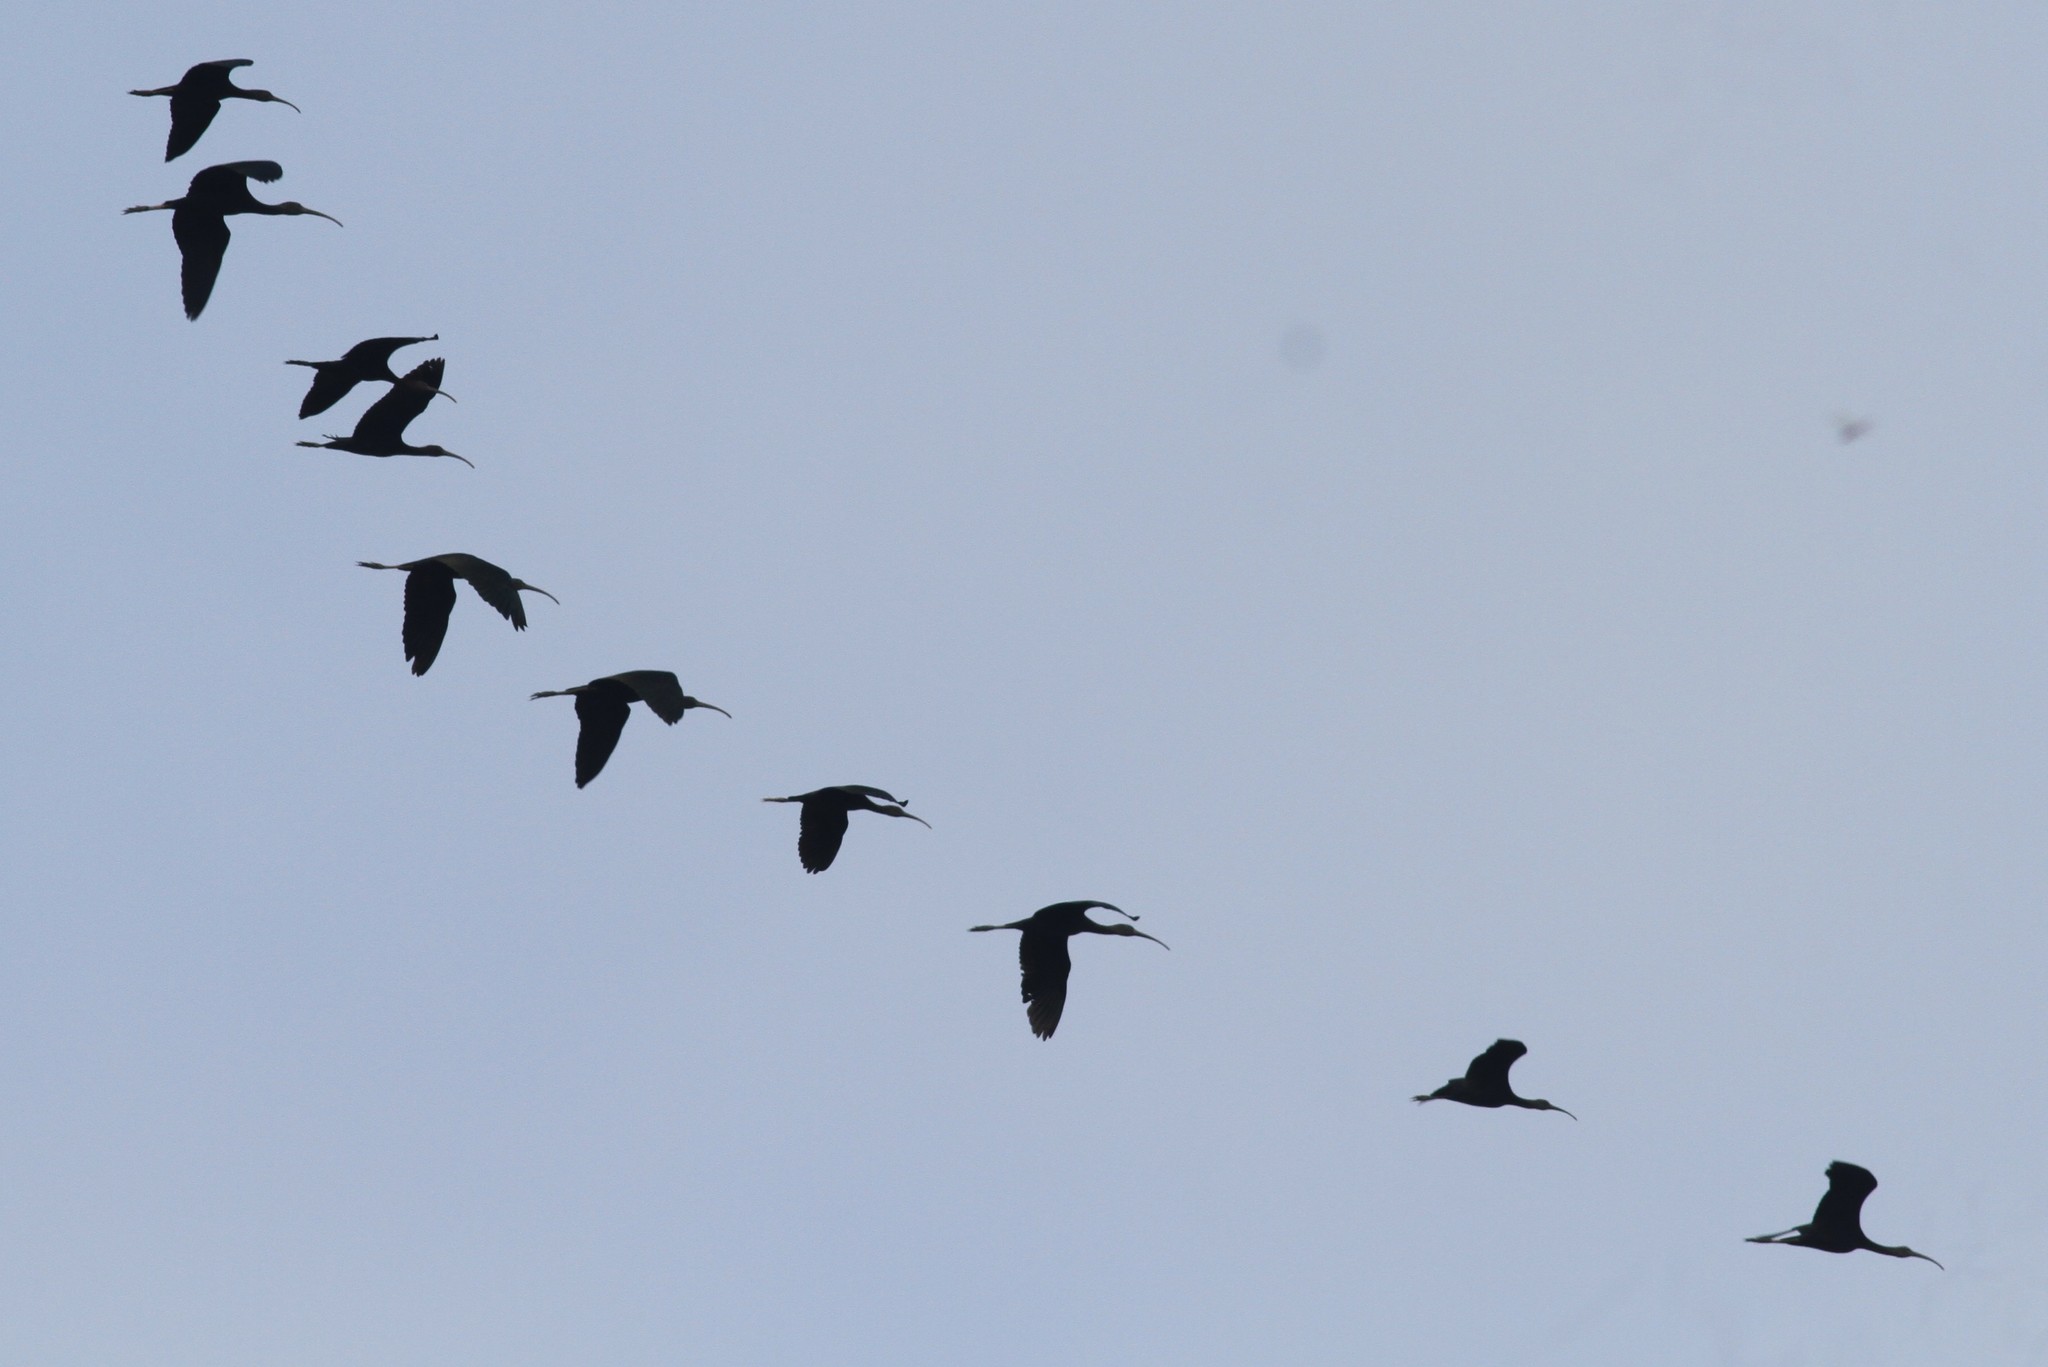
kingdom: Animalia
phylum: Chordata
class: Aves
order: Pelecaniformes
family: Threskiornithidae
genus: Plegadis
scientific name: Plegadis falcinellus
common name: Glossy ibis
